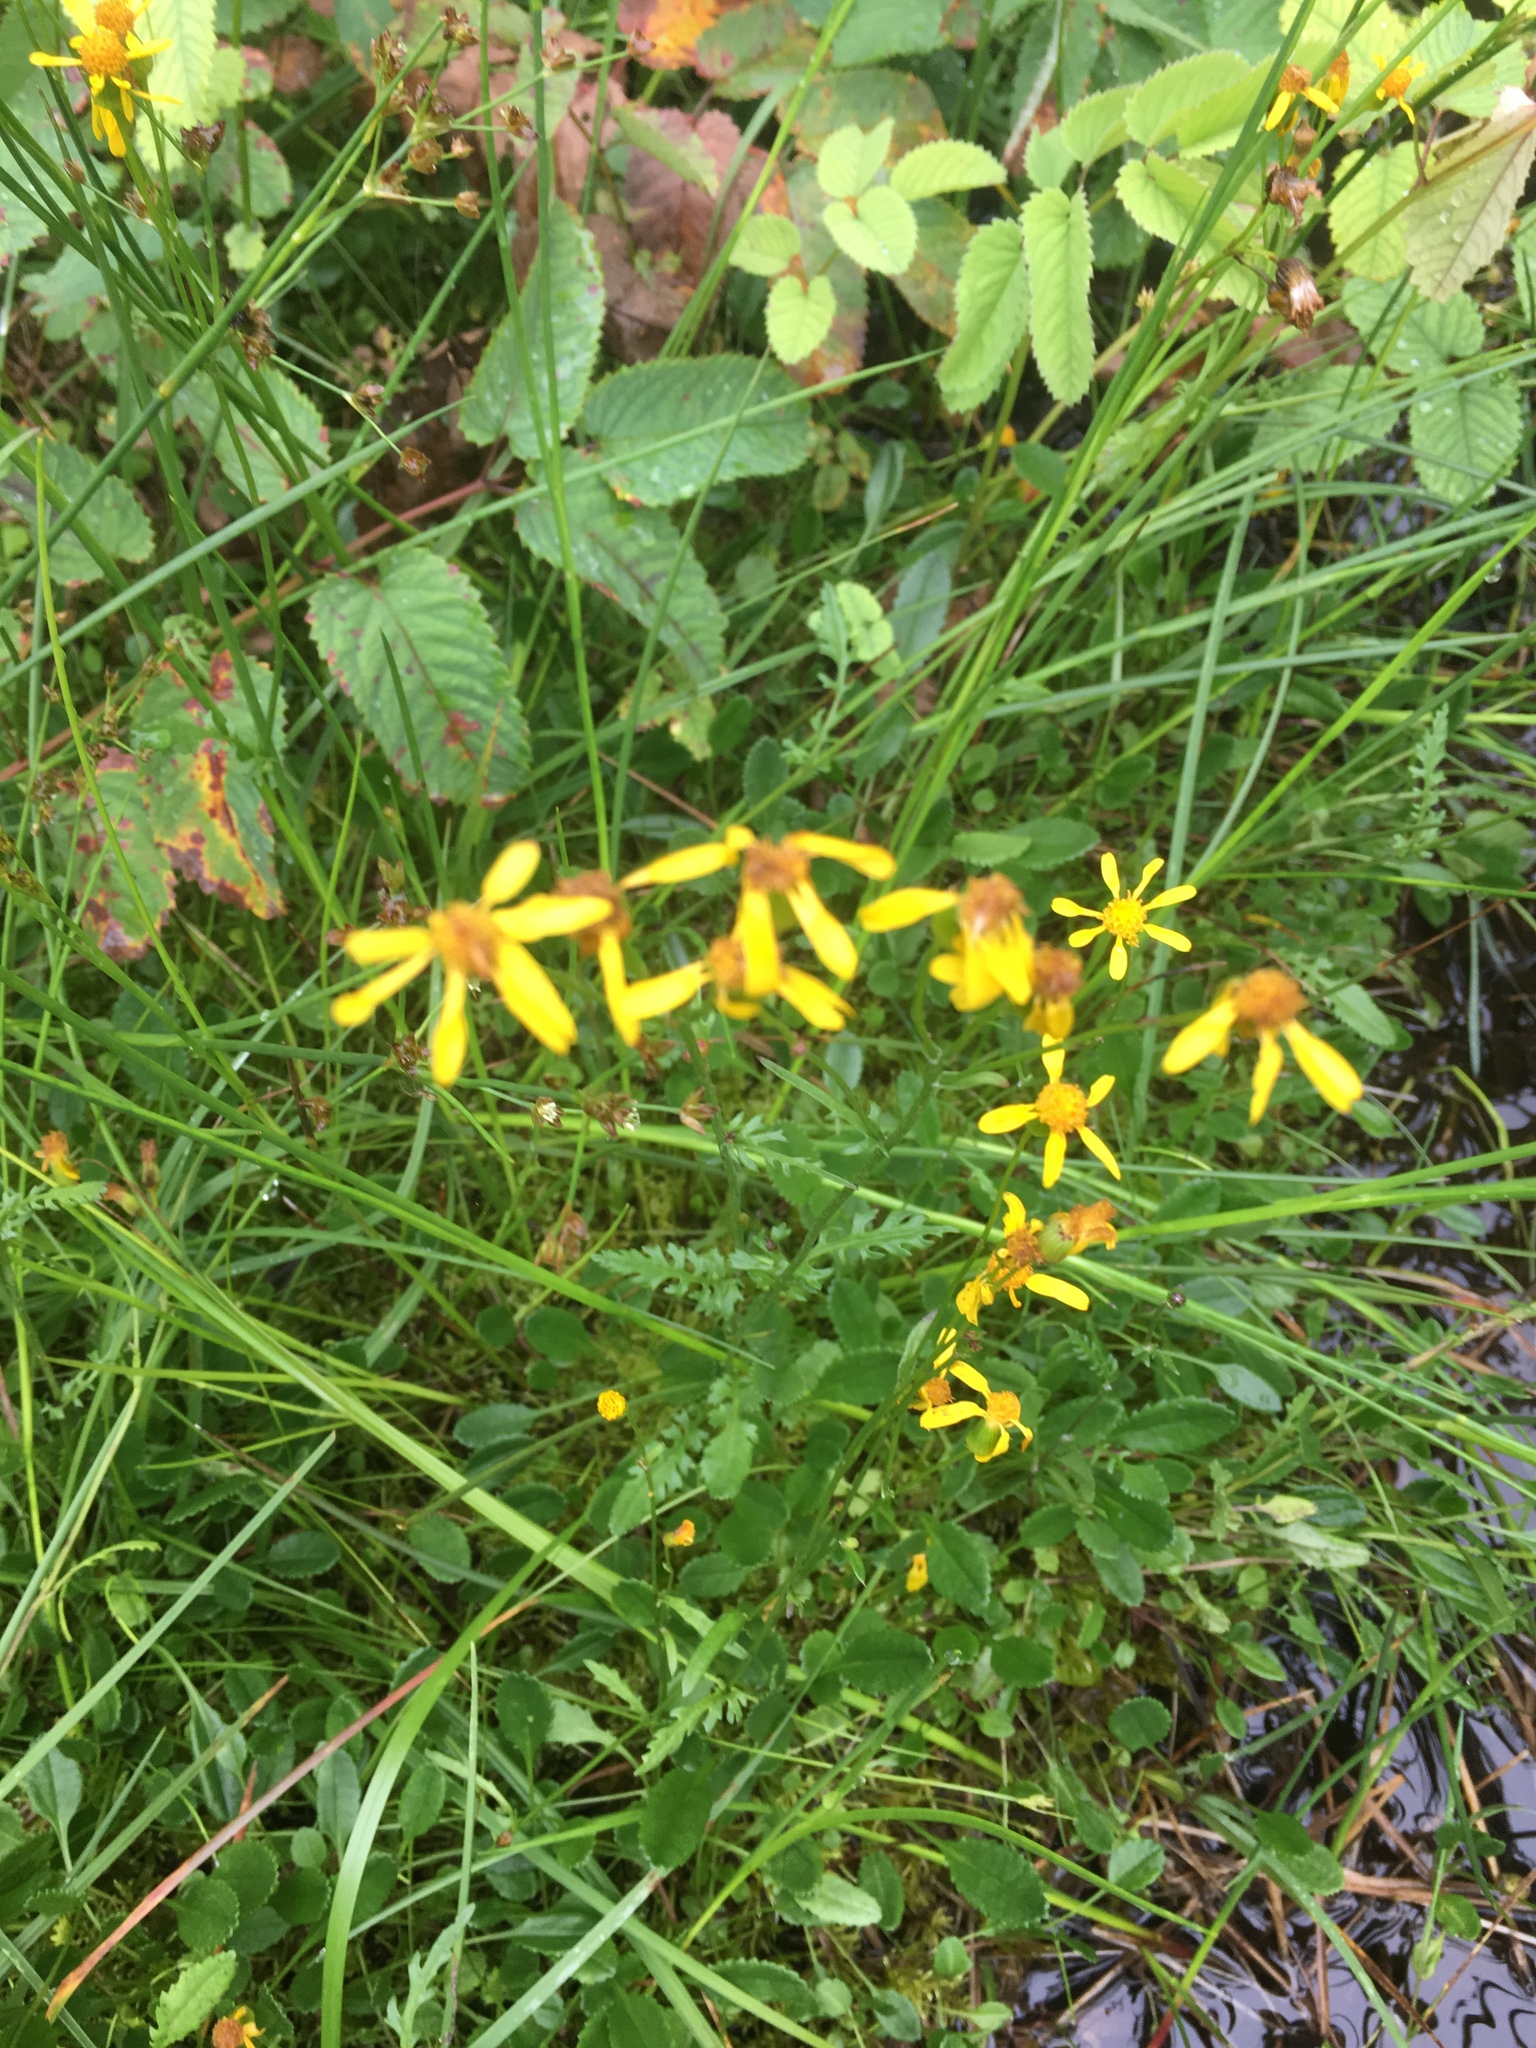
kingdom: Plantae
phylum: Tracheophyta
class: Magnoliopsida
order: Asterales
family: Asteraceae
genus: Packera
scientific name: Packera paupercula
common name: Balsam groundsel
